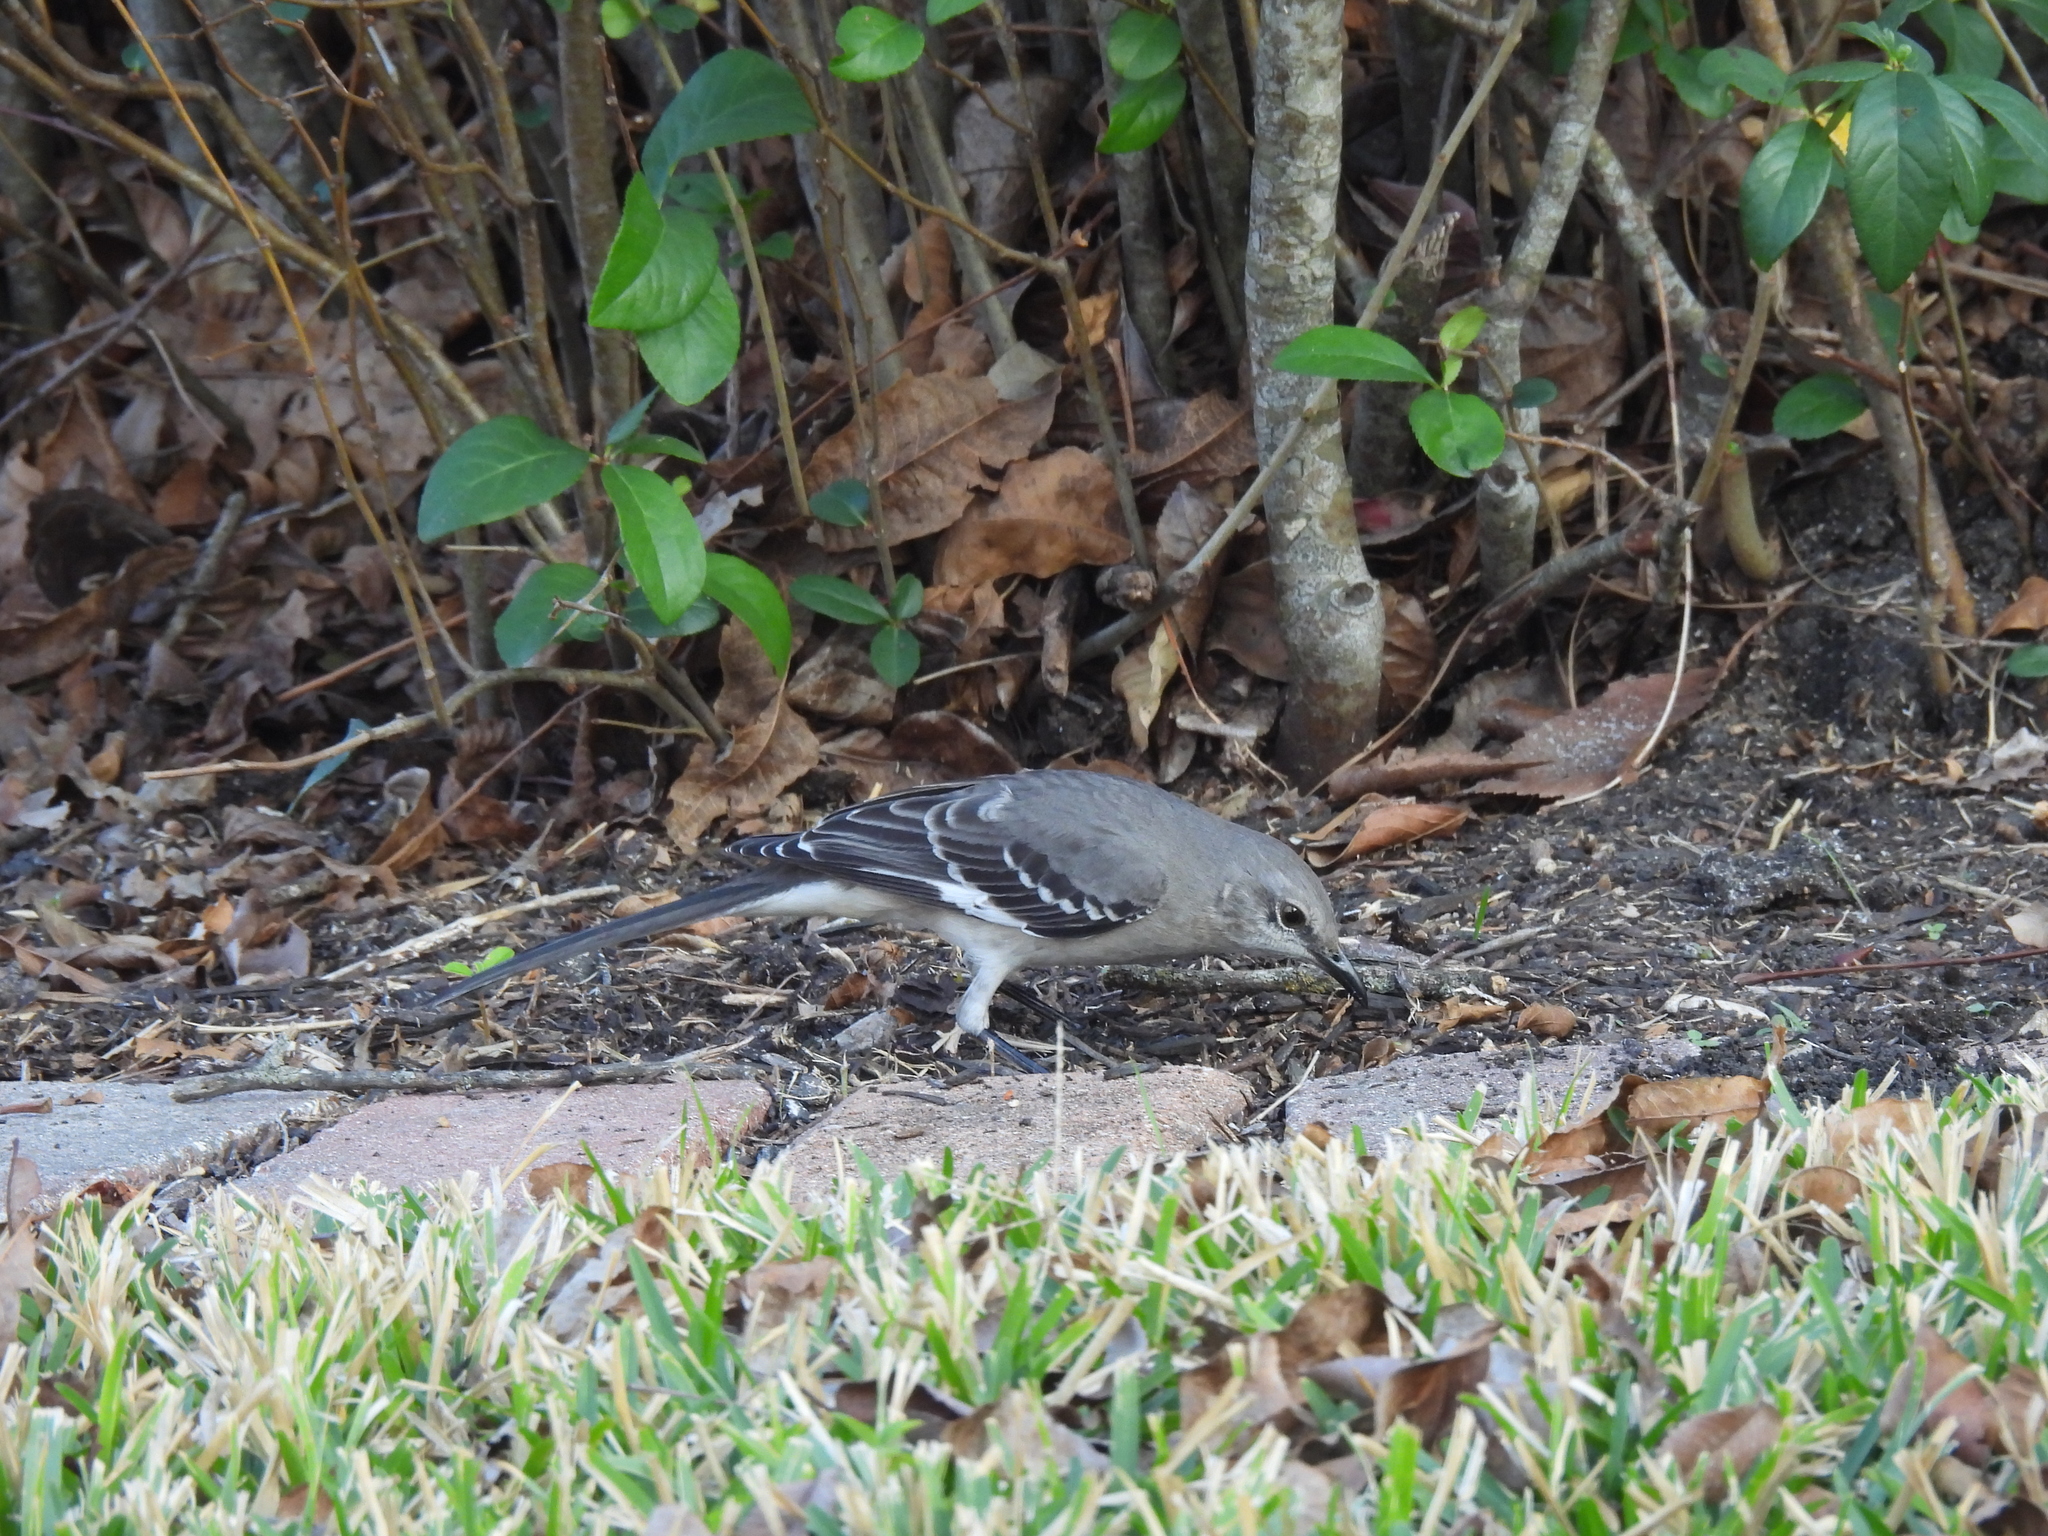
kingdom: Animalia
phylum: Chordata
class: Aves
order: Passeriformes
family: Mimidae
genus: Mimus
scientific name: Mimus polyglottos
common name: Northern mockingbird
